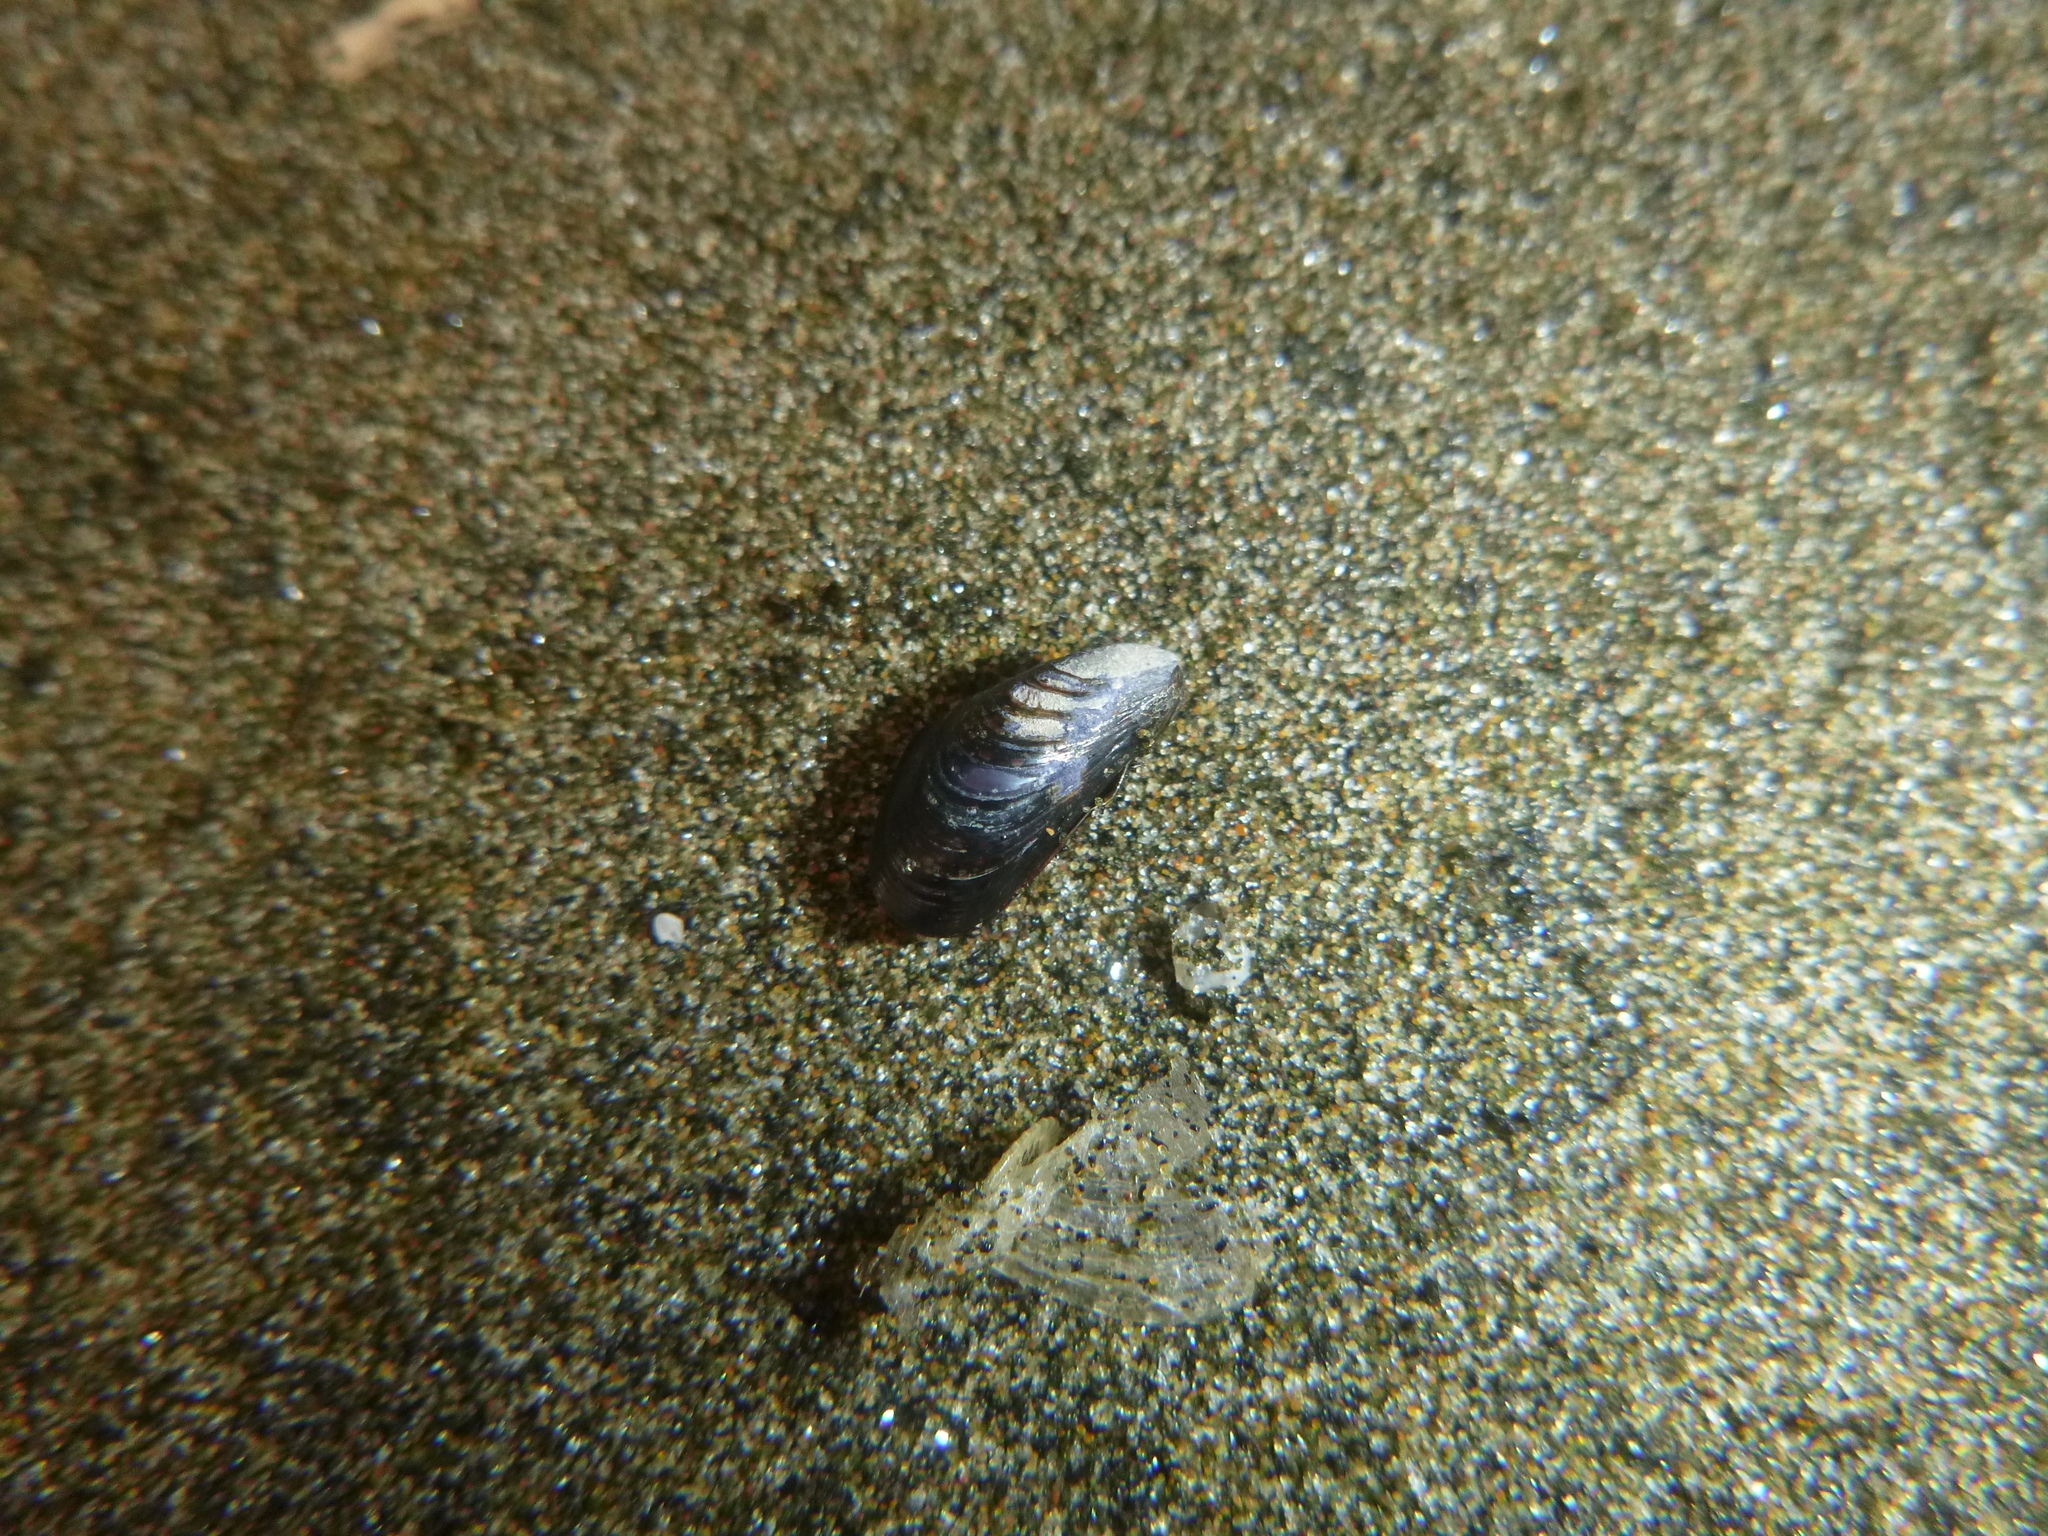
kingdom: Animalia
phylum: Mollusca
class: Bivalvia
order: Mytilida
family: Mytilidae
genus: Xenostrobus
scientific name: Xenostrobus neozelanicus
